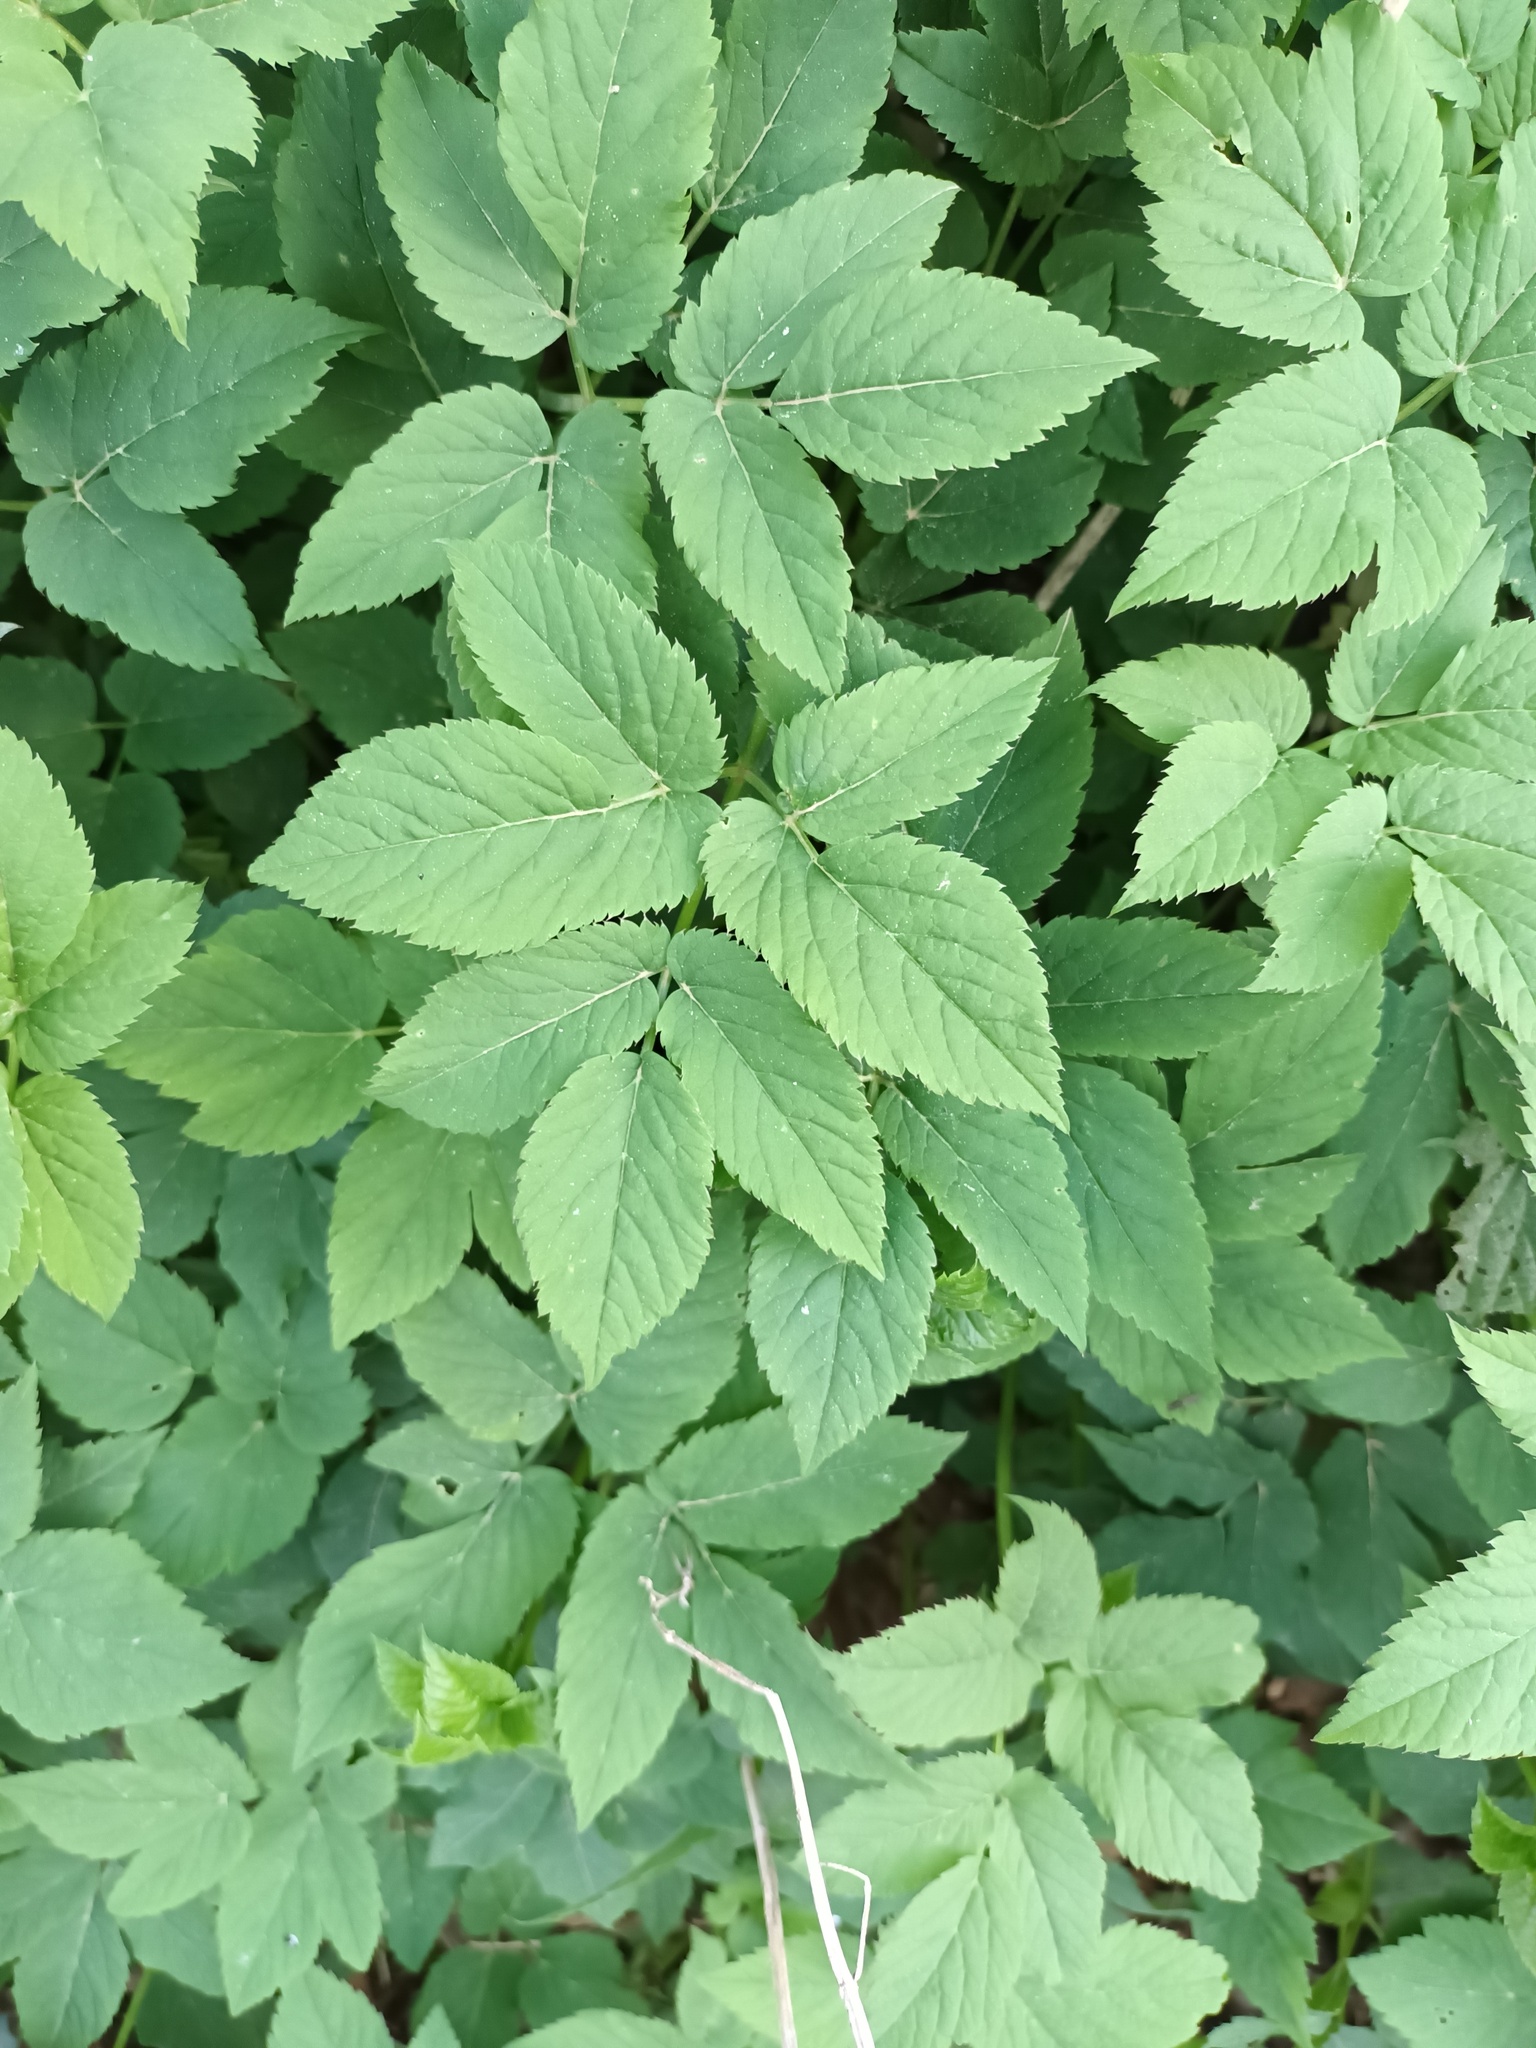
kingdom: Plantae
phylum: Tracheophyta
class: Magnoliopsida
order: Apiales
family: Apiaceae
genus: Aegopodium
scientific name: Aegopodium podagraria
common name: Ground-elder
